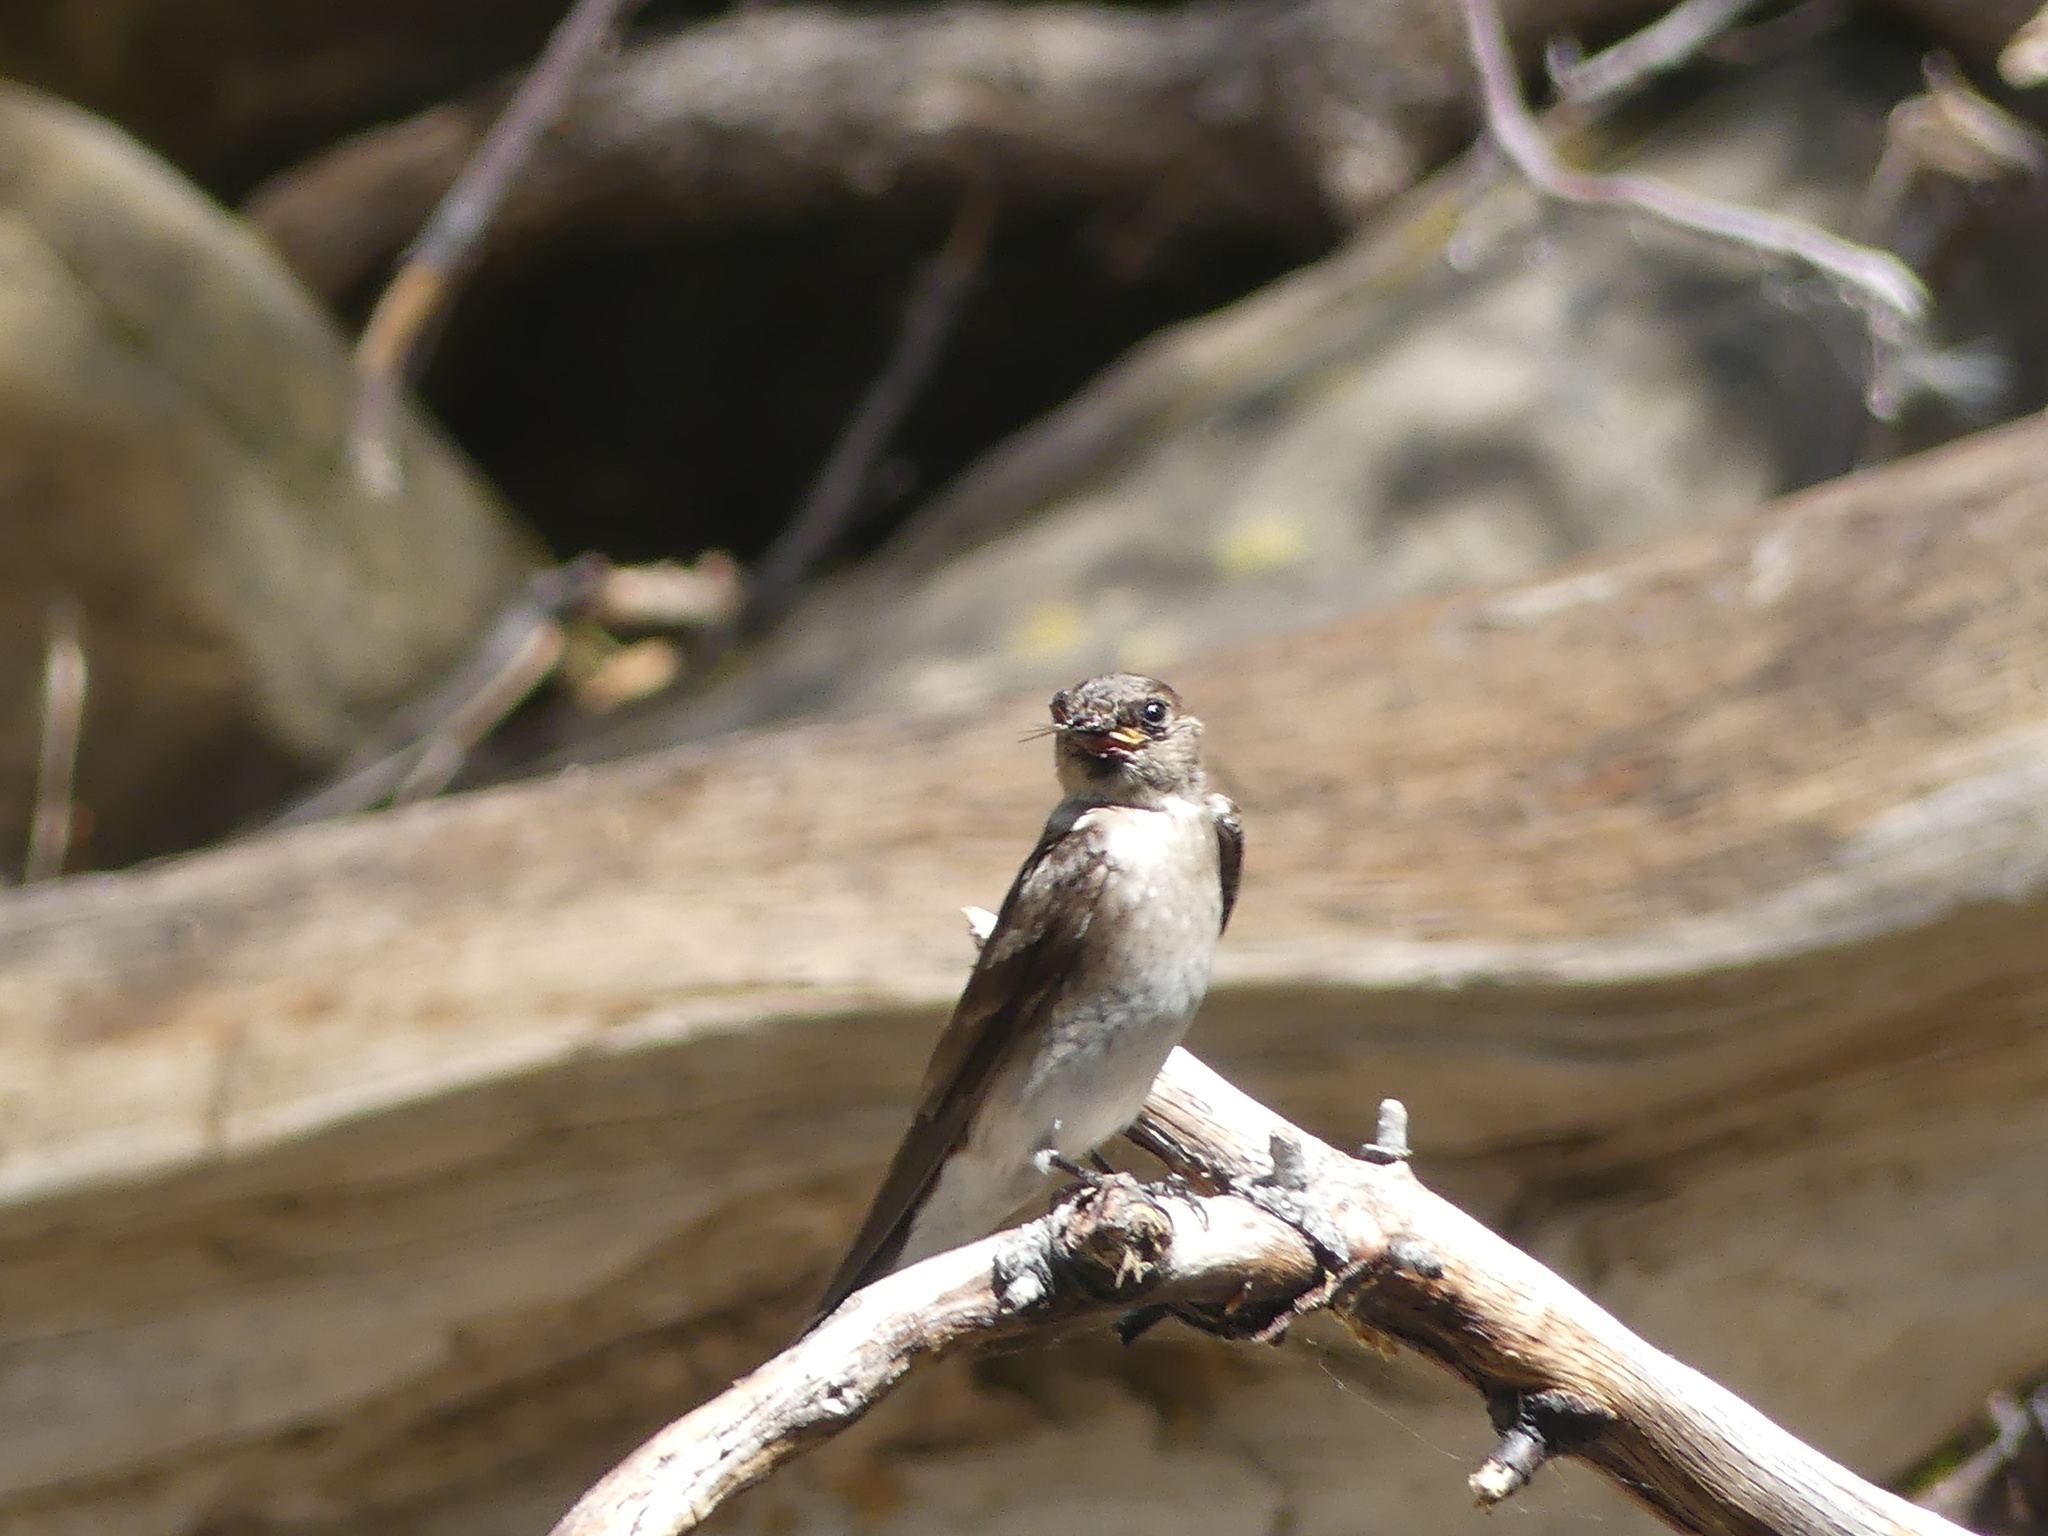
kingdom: Animalia
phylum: Chordata
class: Aves
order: Passeriformes
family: Hirundinidae
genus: Stelgidopteryx
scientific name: Stelgidopteryx serripennis
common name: Northern rough-winged swallow
